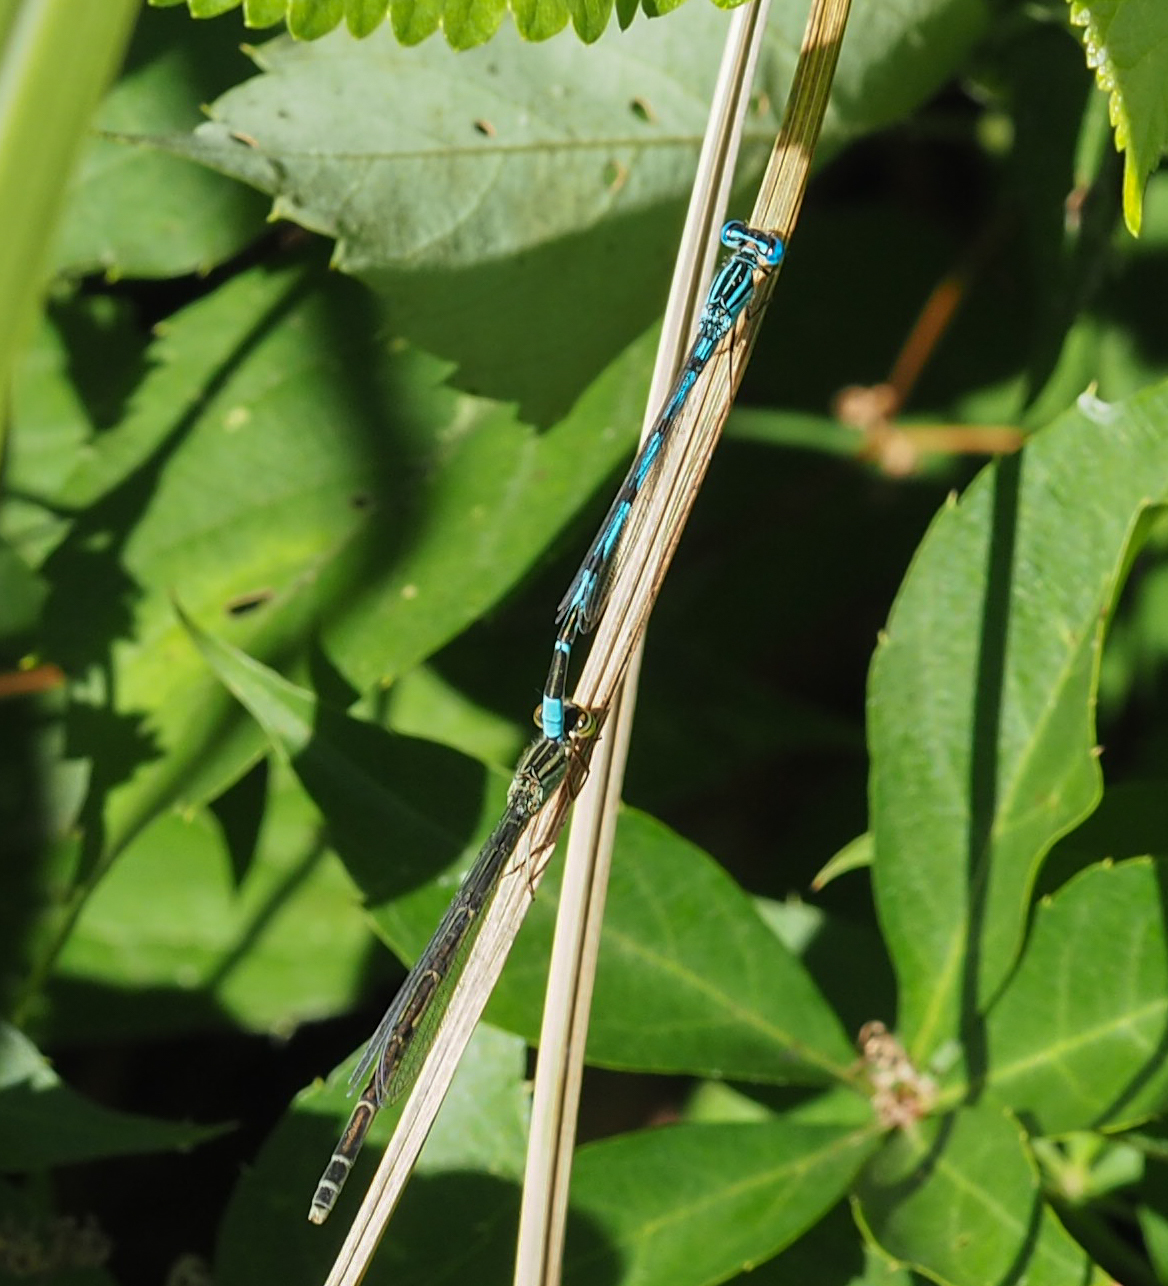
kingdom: Animalia
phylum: Arthropoda
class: Insecta
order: Odonata
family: Coenagrionidae
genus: Enallagma
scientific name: Enallagma durum
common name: Big bluet
